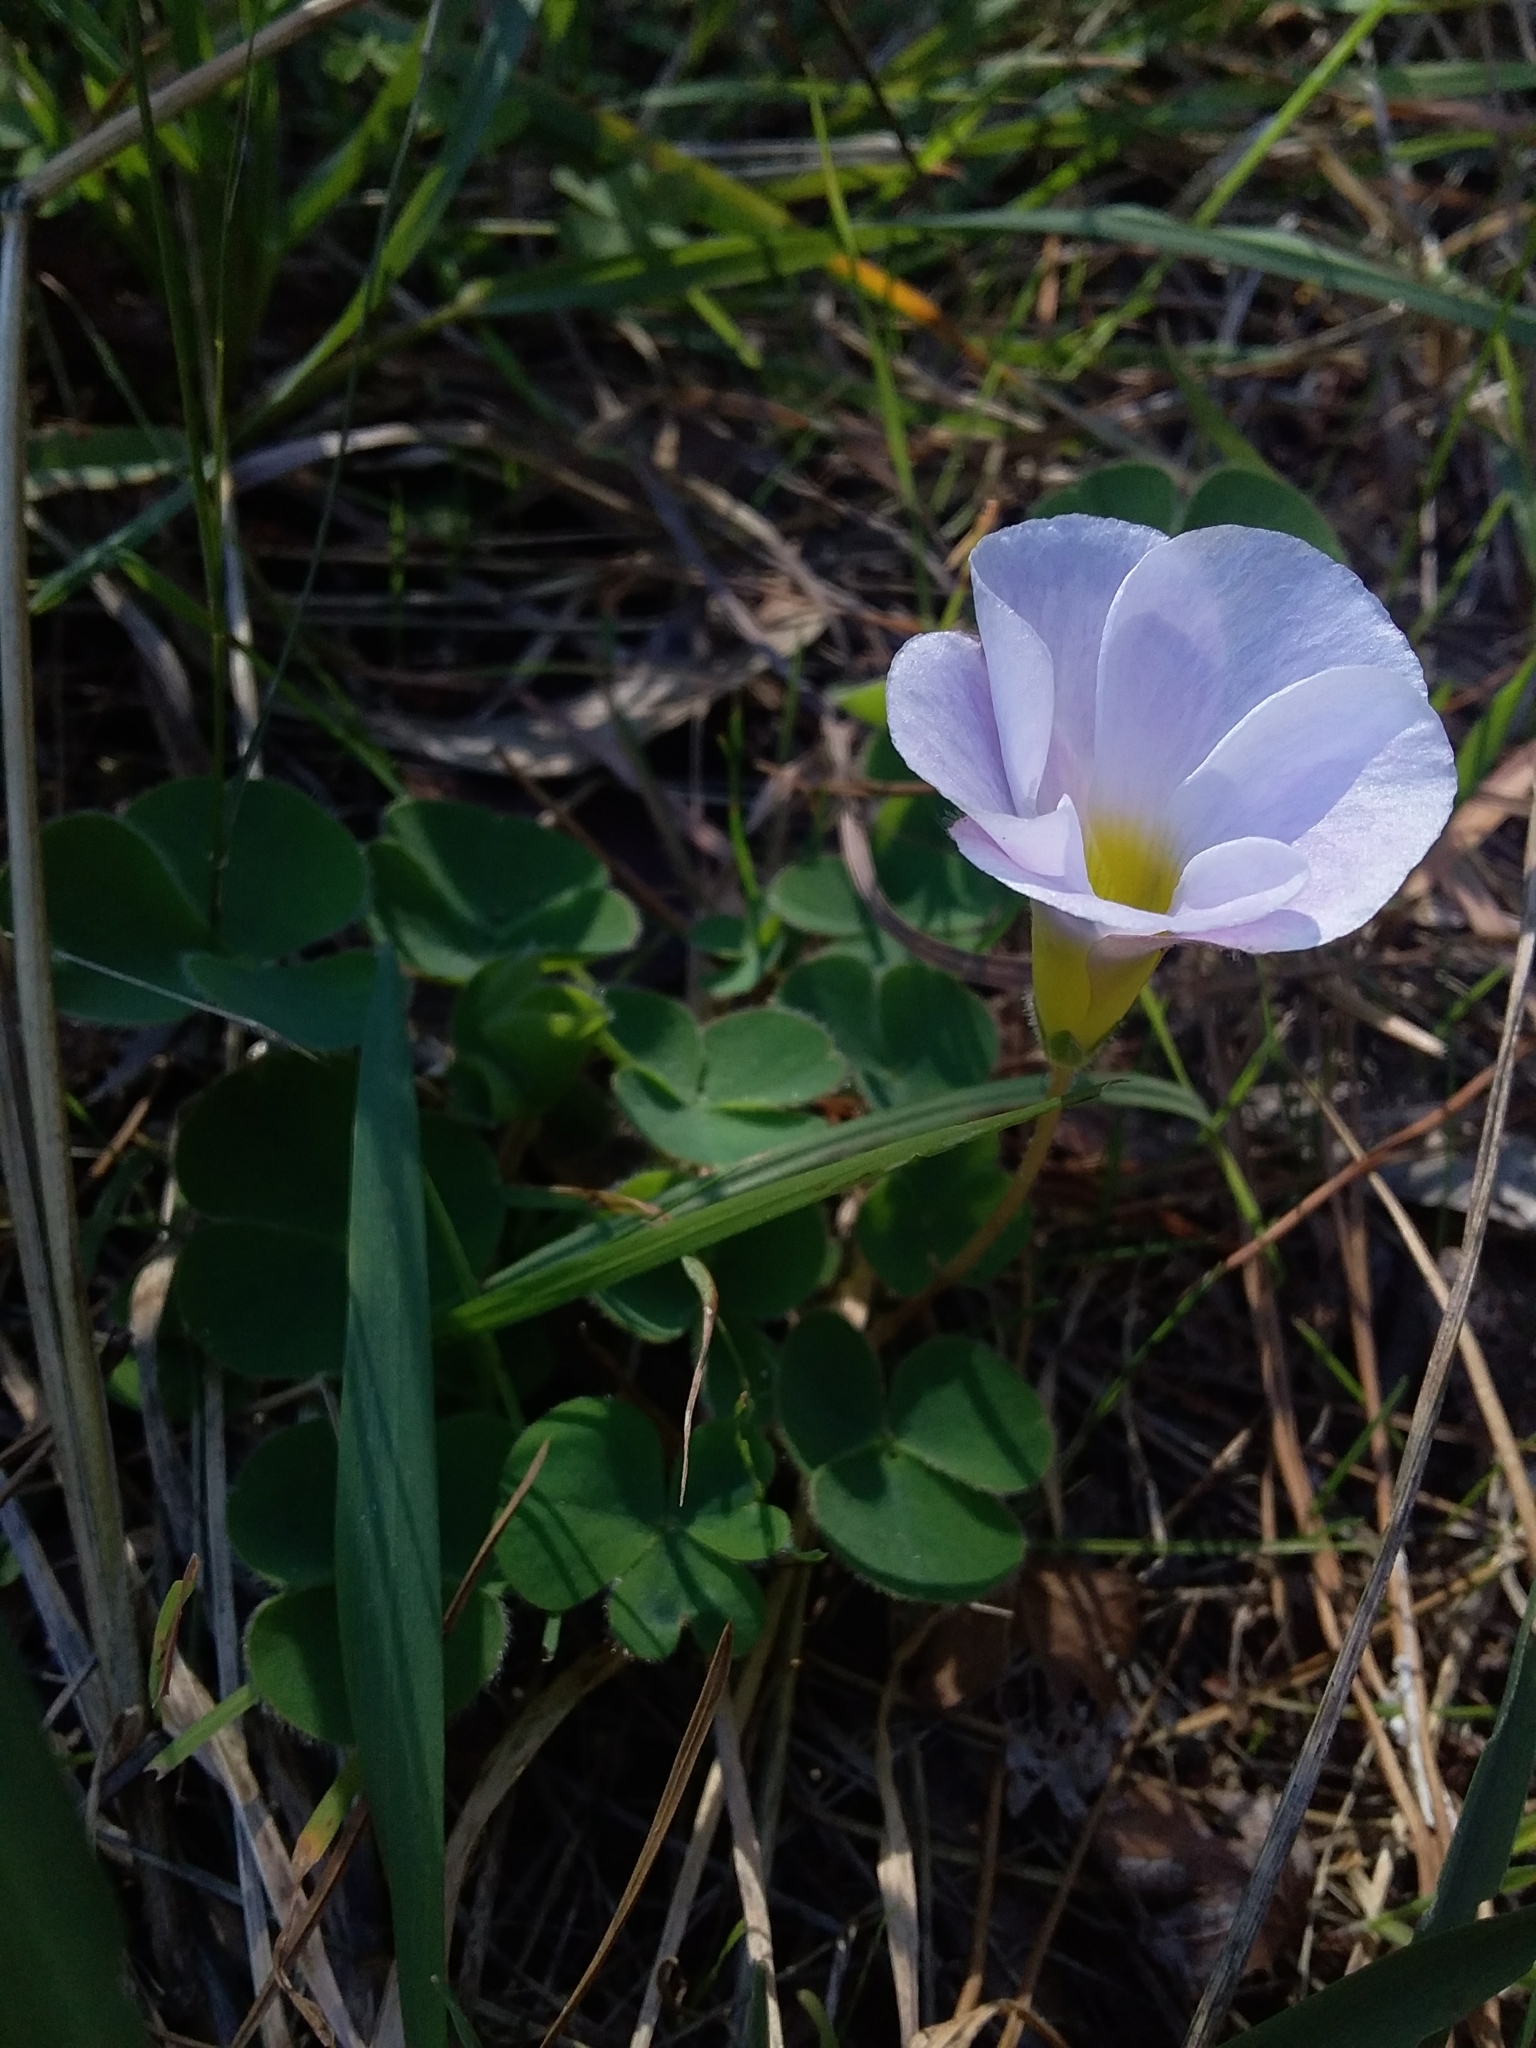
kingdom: Plantae
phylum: Tracheophyta
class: Magnoliopsida
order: Oxalidales
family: Oxalidaceae
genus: Oxalis
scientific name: Oxalis purpurea
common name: Purple woodsorrel
